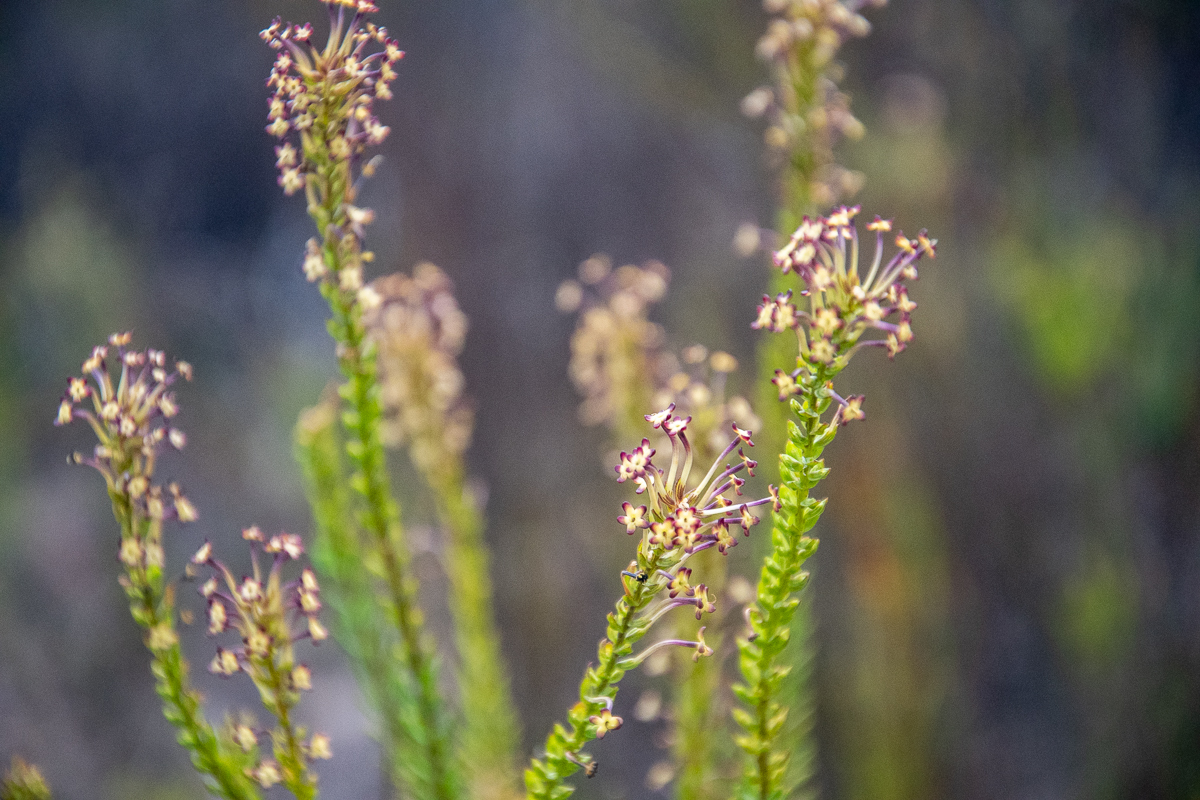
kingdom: Plantae
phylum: Tracheophyta
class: Magnoliopsida
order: Lamiales
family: Scrophulariaceae
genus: Microdon
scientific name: Microdon dubius
